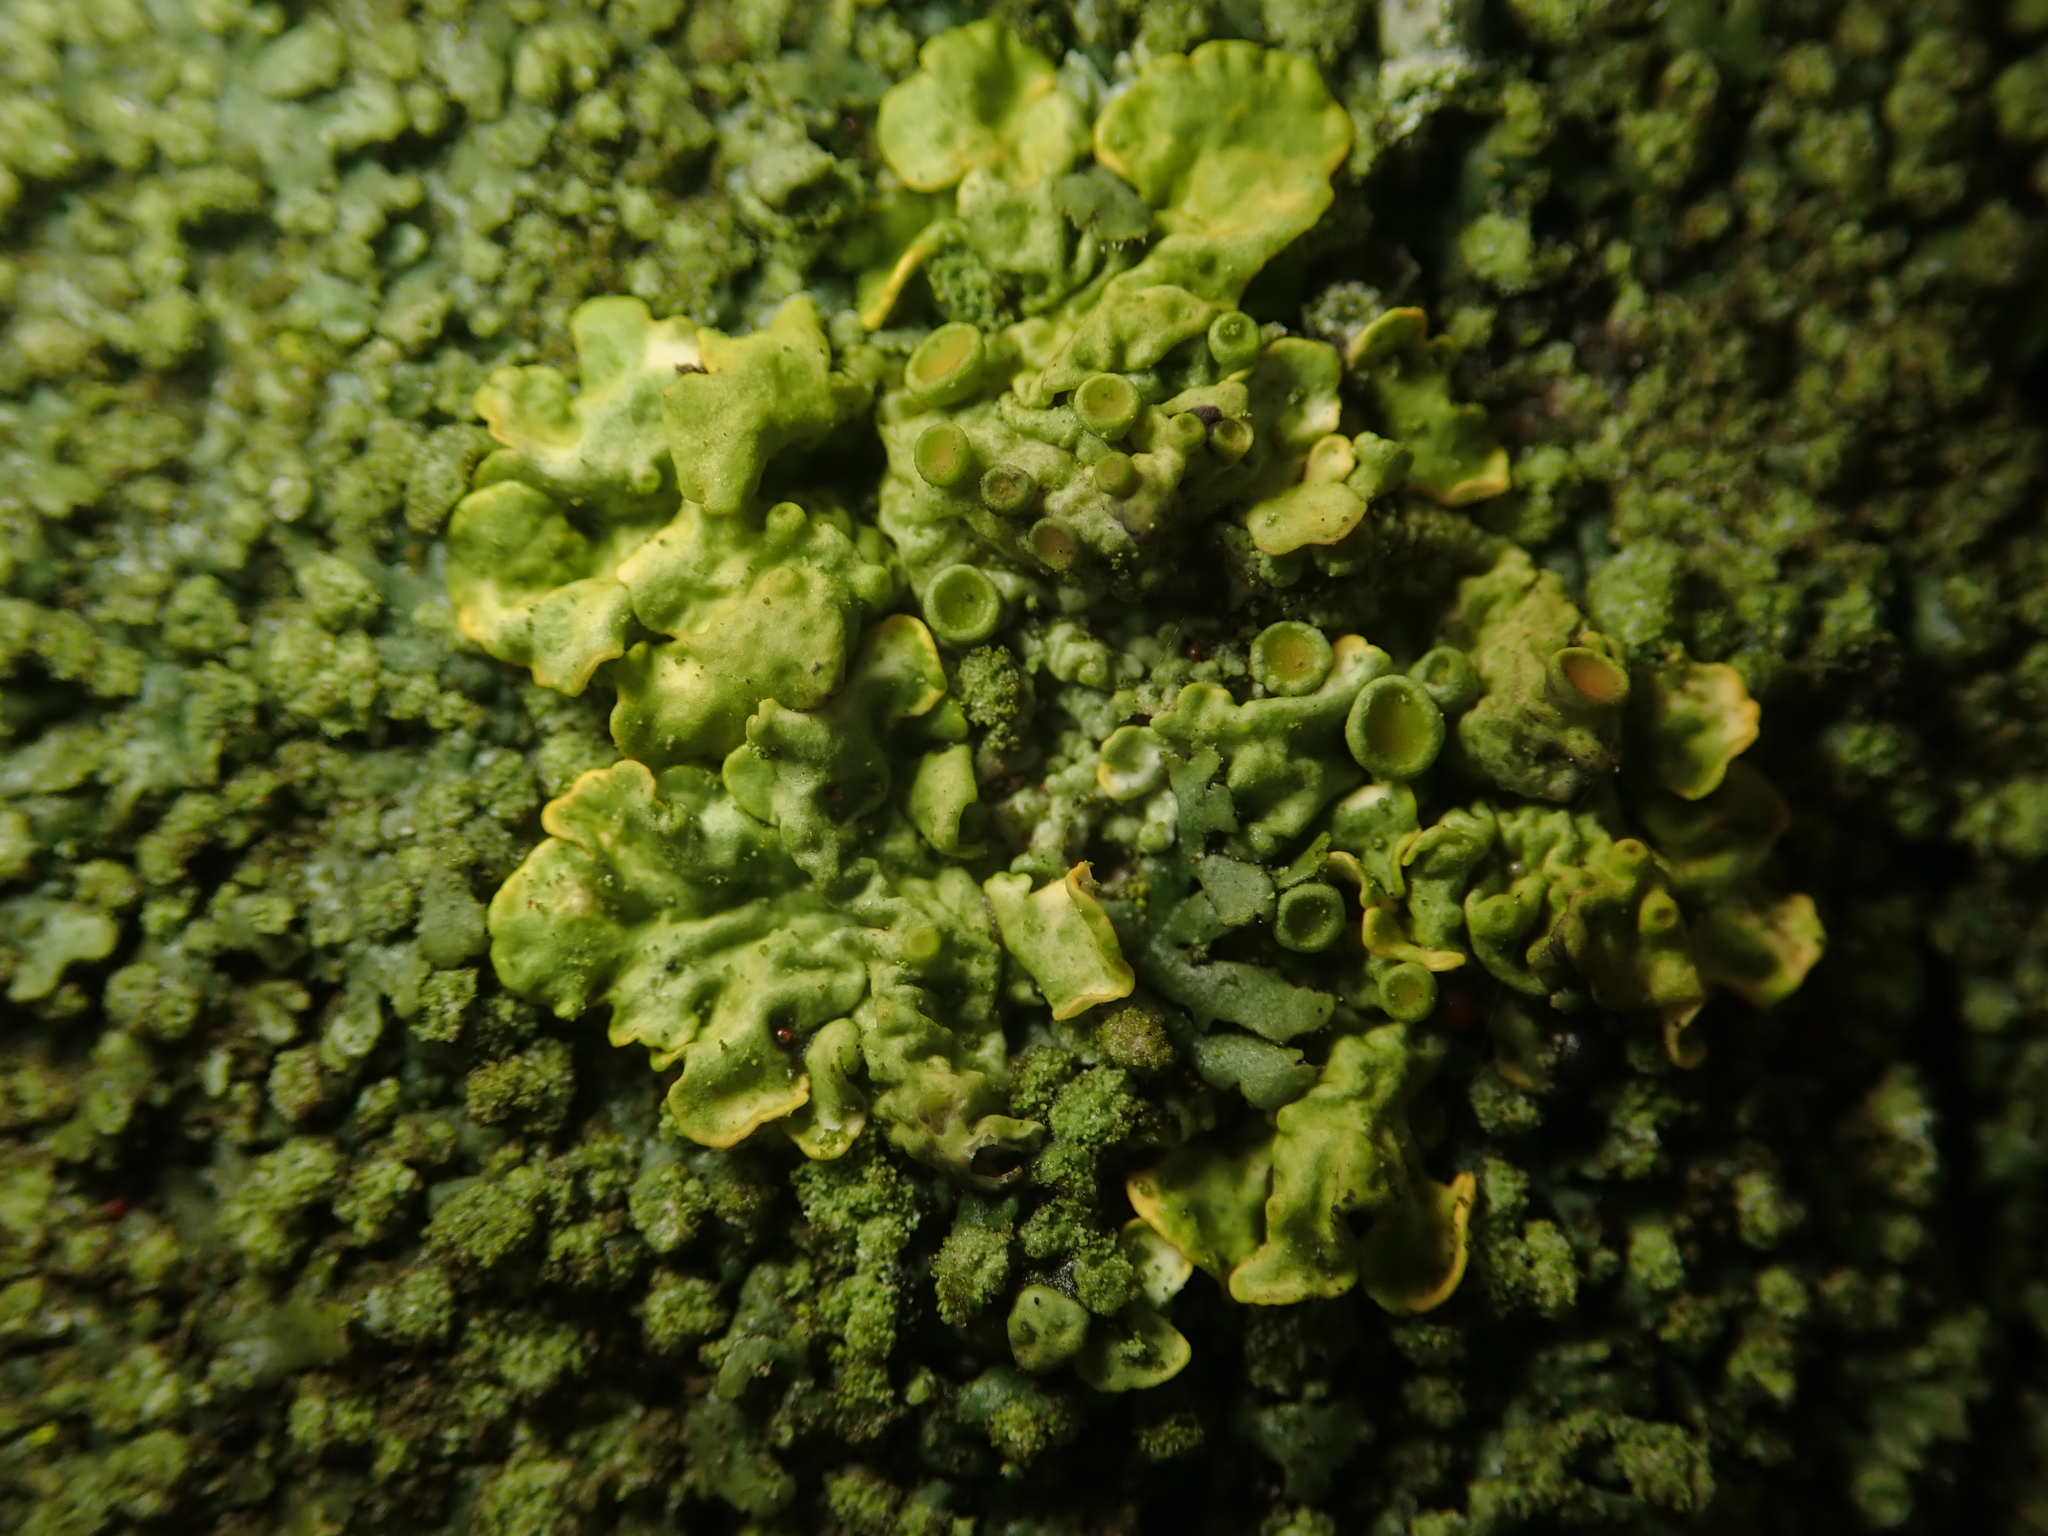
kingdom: Fungi
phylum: Ascomycota
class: Lecanoromycetes
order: Teloschistales
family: Teloschistaceae
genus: Xanthoria
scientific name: Xanthoria parietina
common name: Common orange lichen
